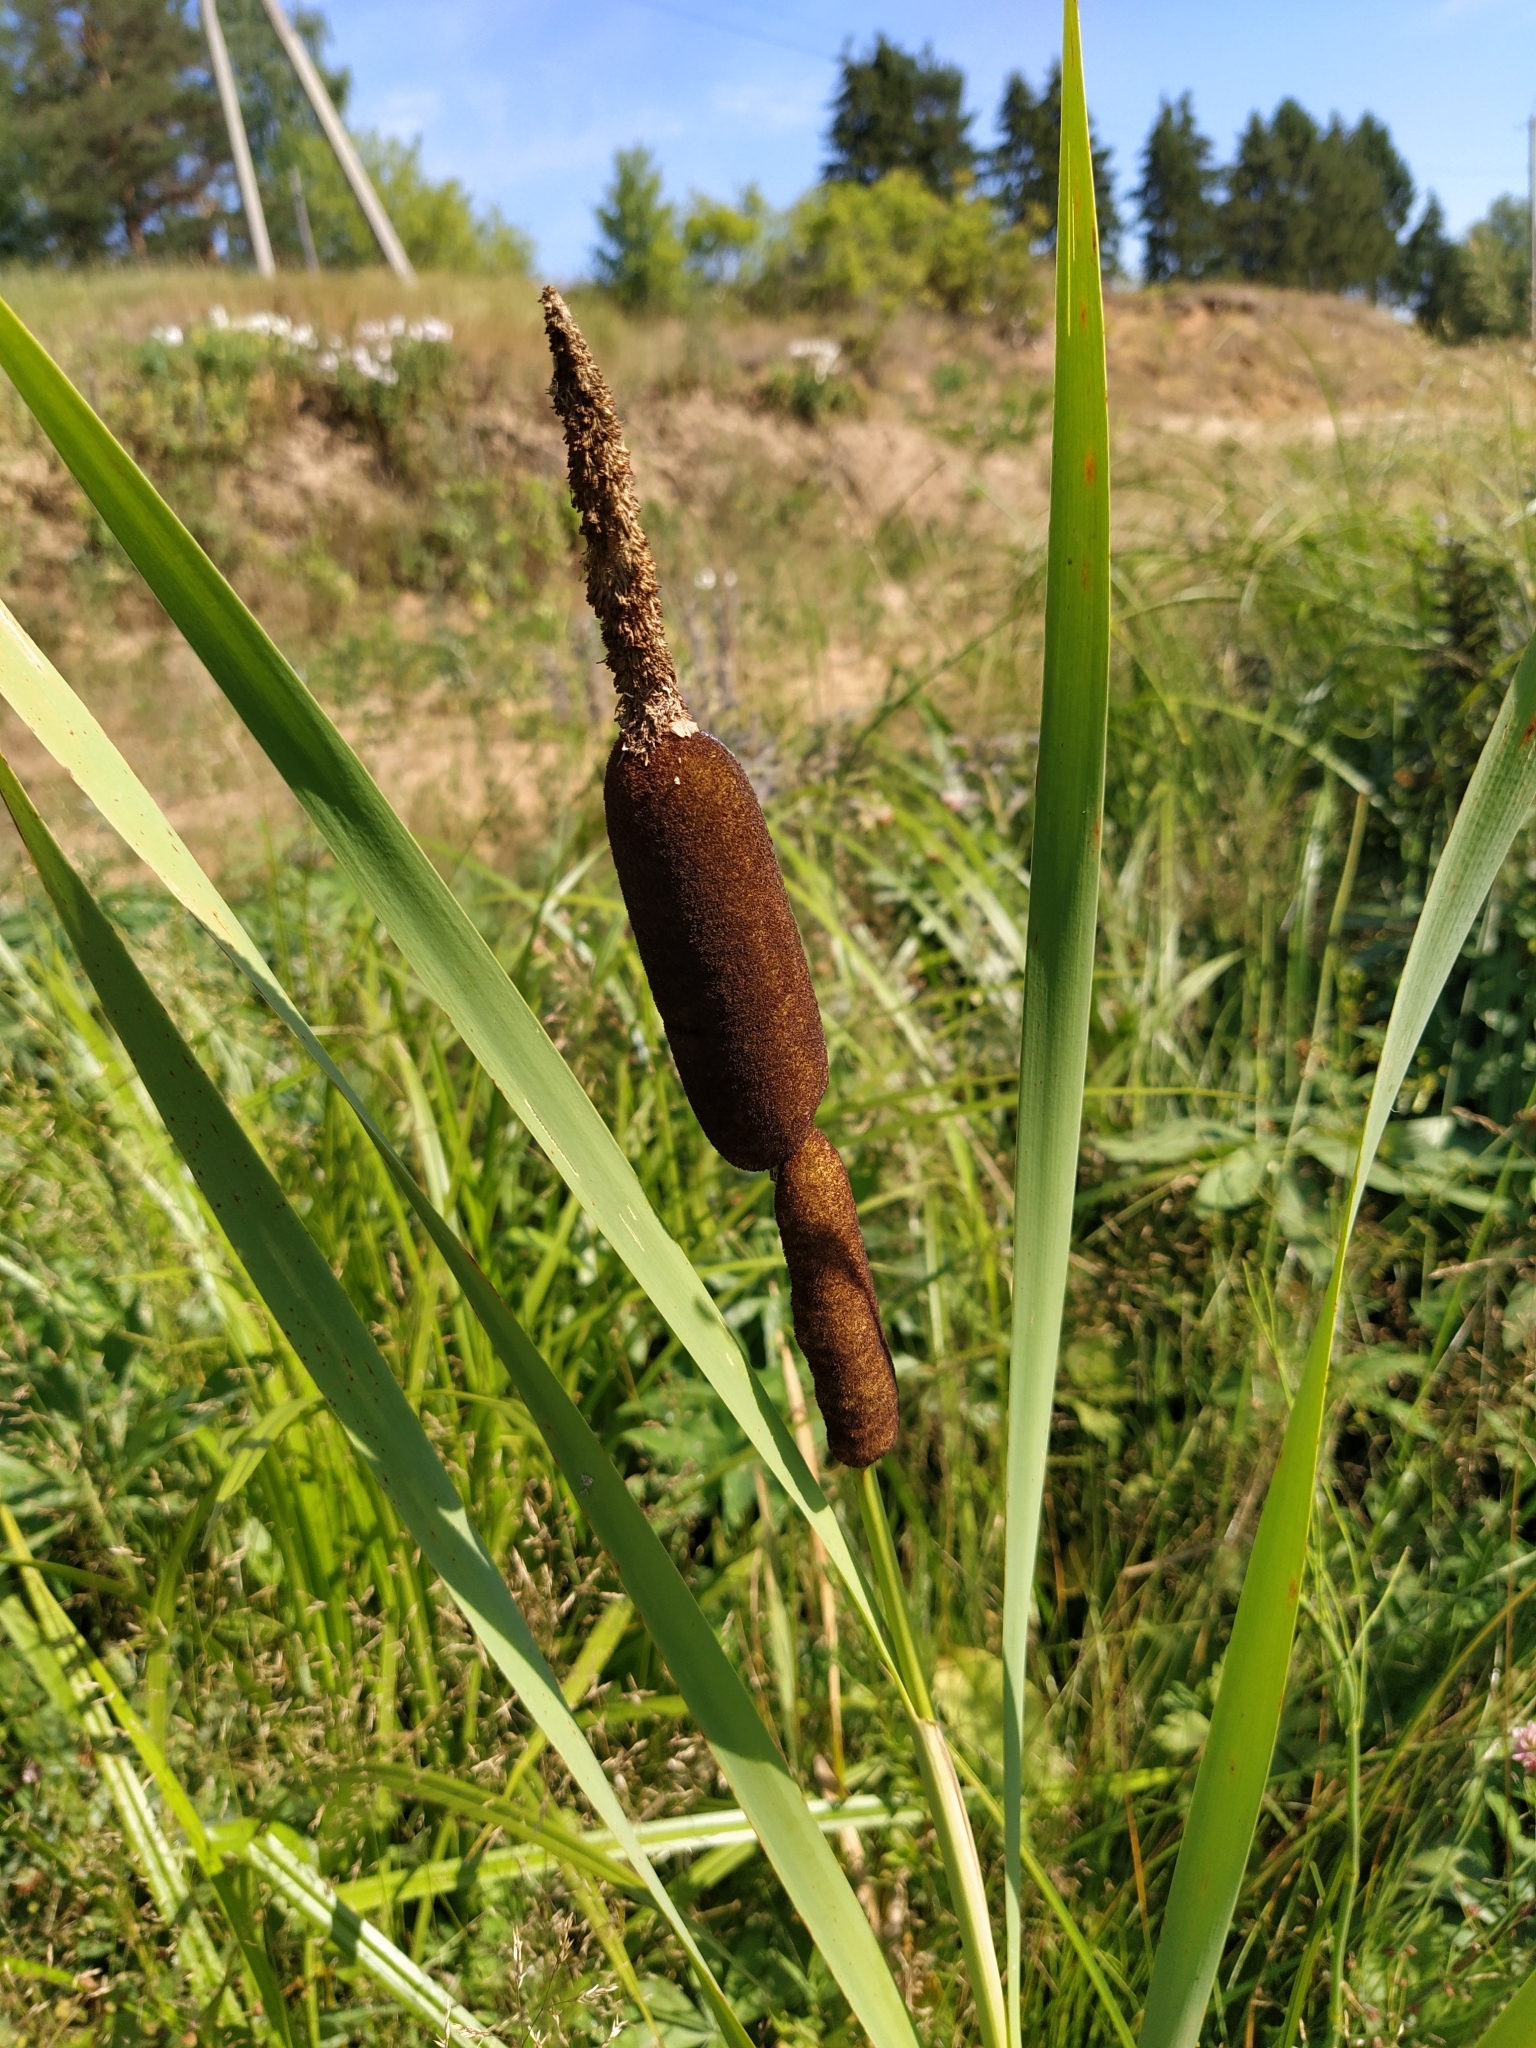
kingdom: Plantae
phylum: Tracheophyta
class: Liliopsida
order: Poales
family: Typhaceae
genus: Typha
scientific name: Typha latifolia
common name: Broadleaf cattail
